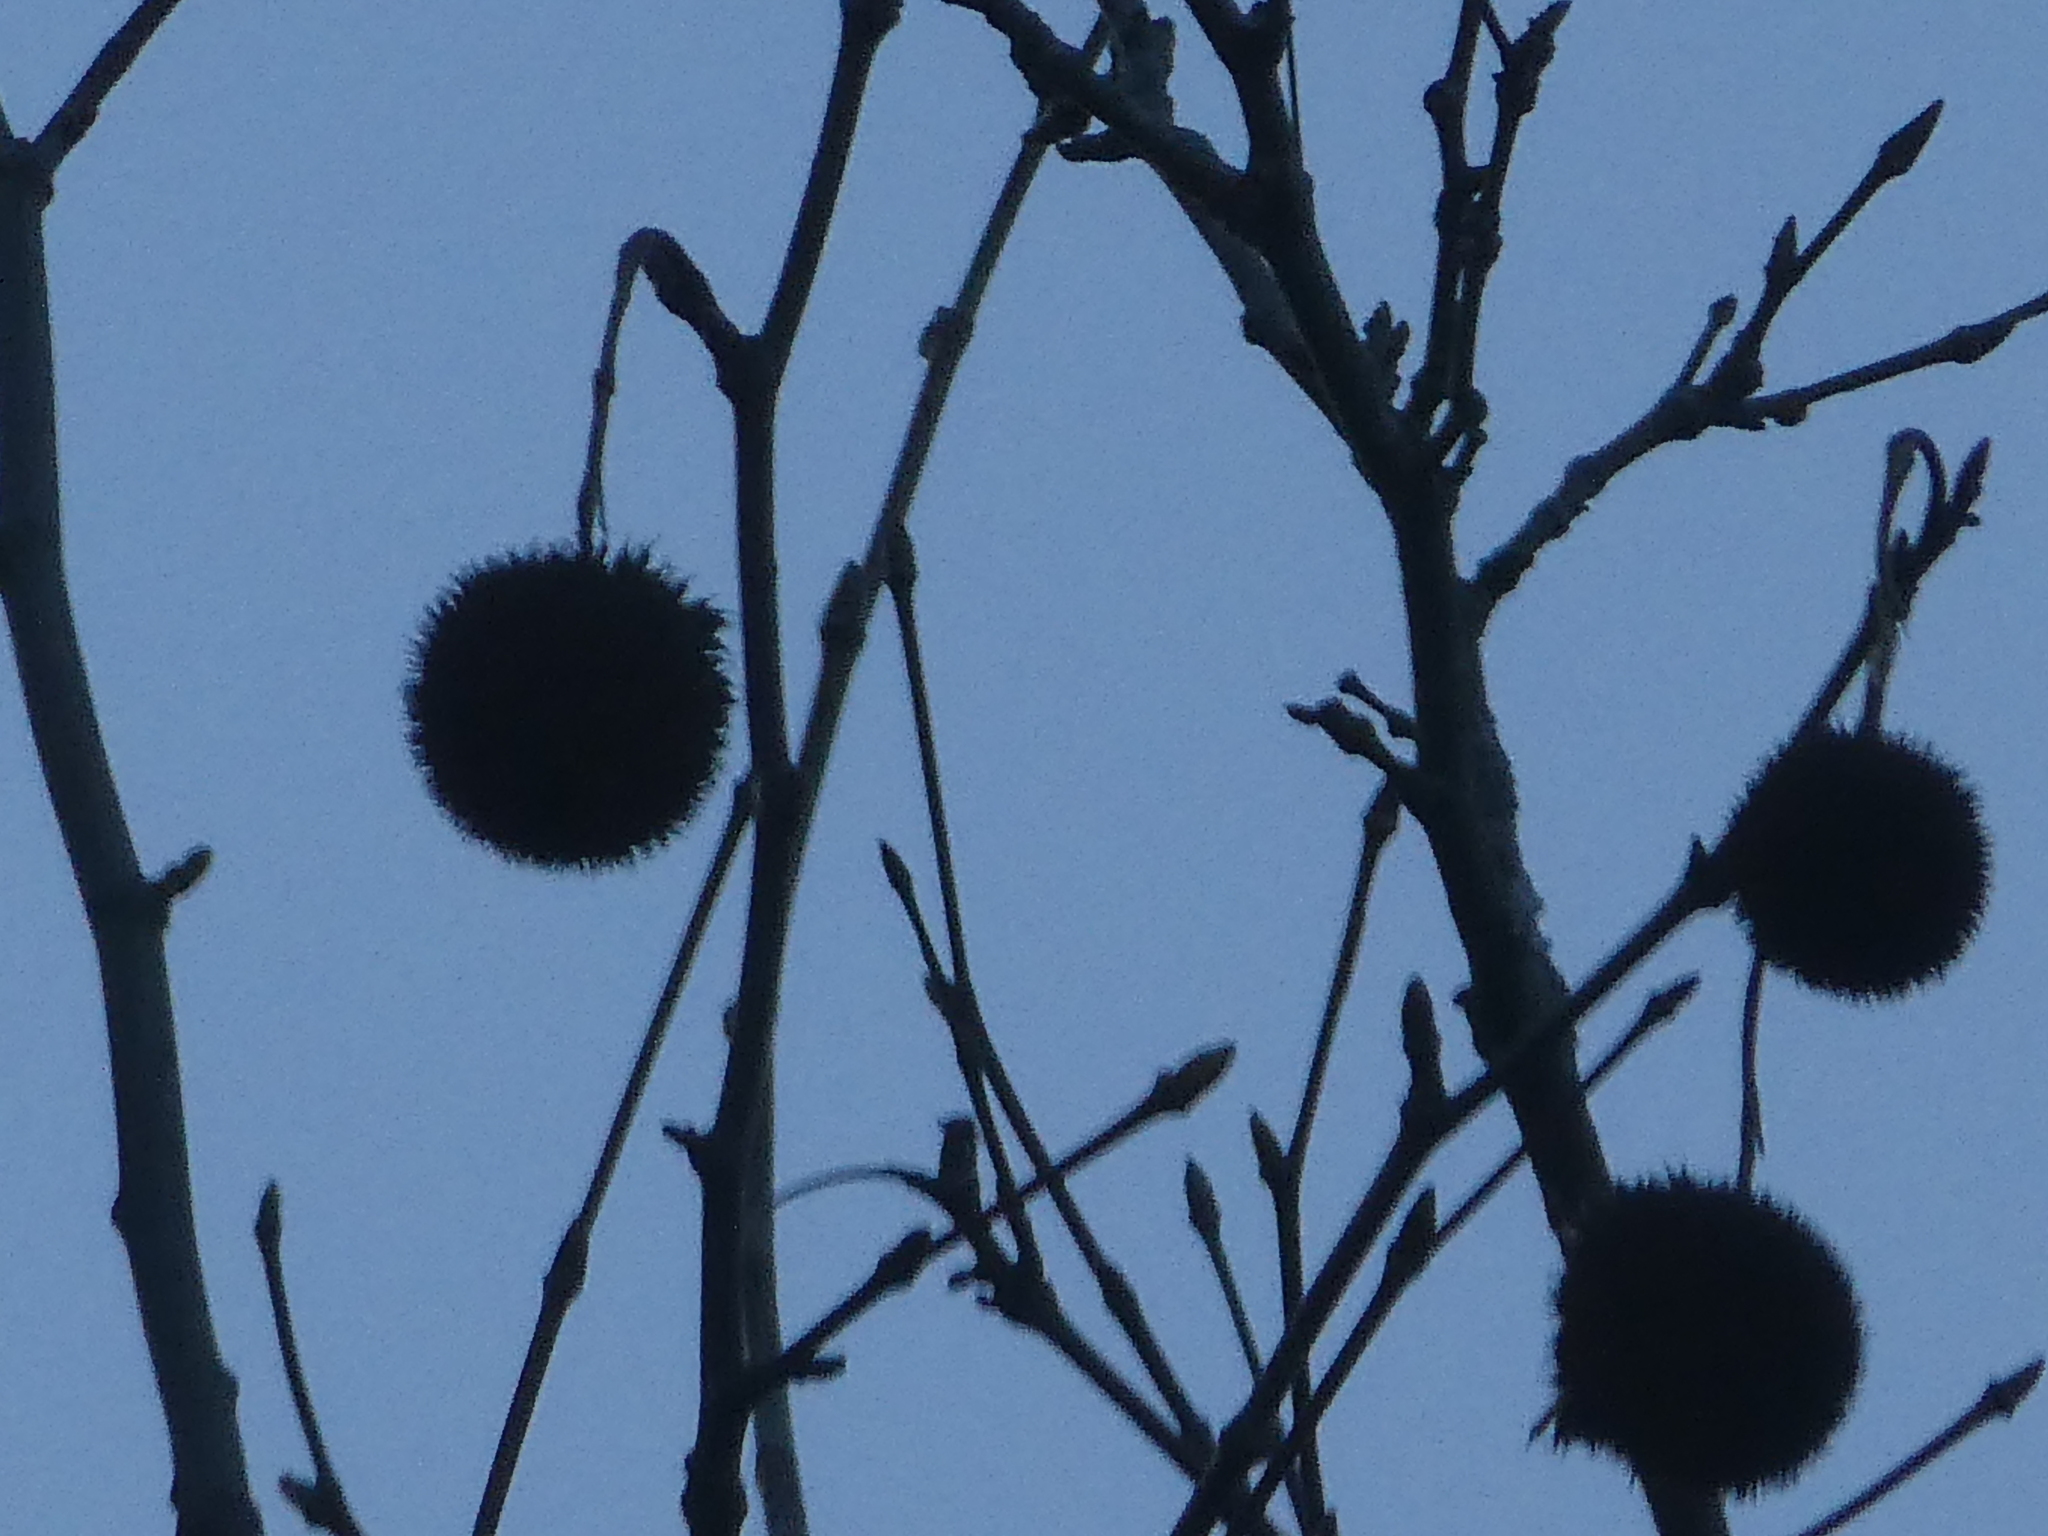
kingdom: Plantae
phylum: Tracheophyta
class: Magnoliopsida
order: Proteales
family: Platanaceae
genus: Platanus
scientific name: Platanus occidentalis
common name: American sycamore
